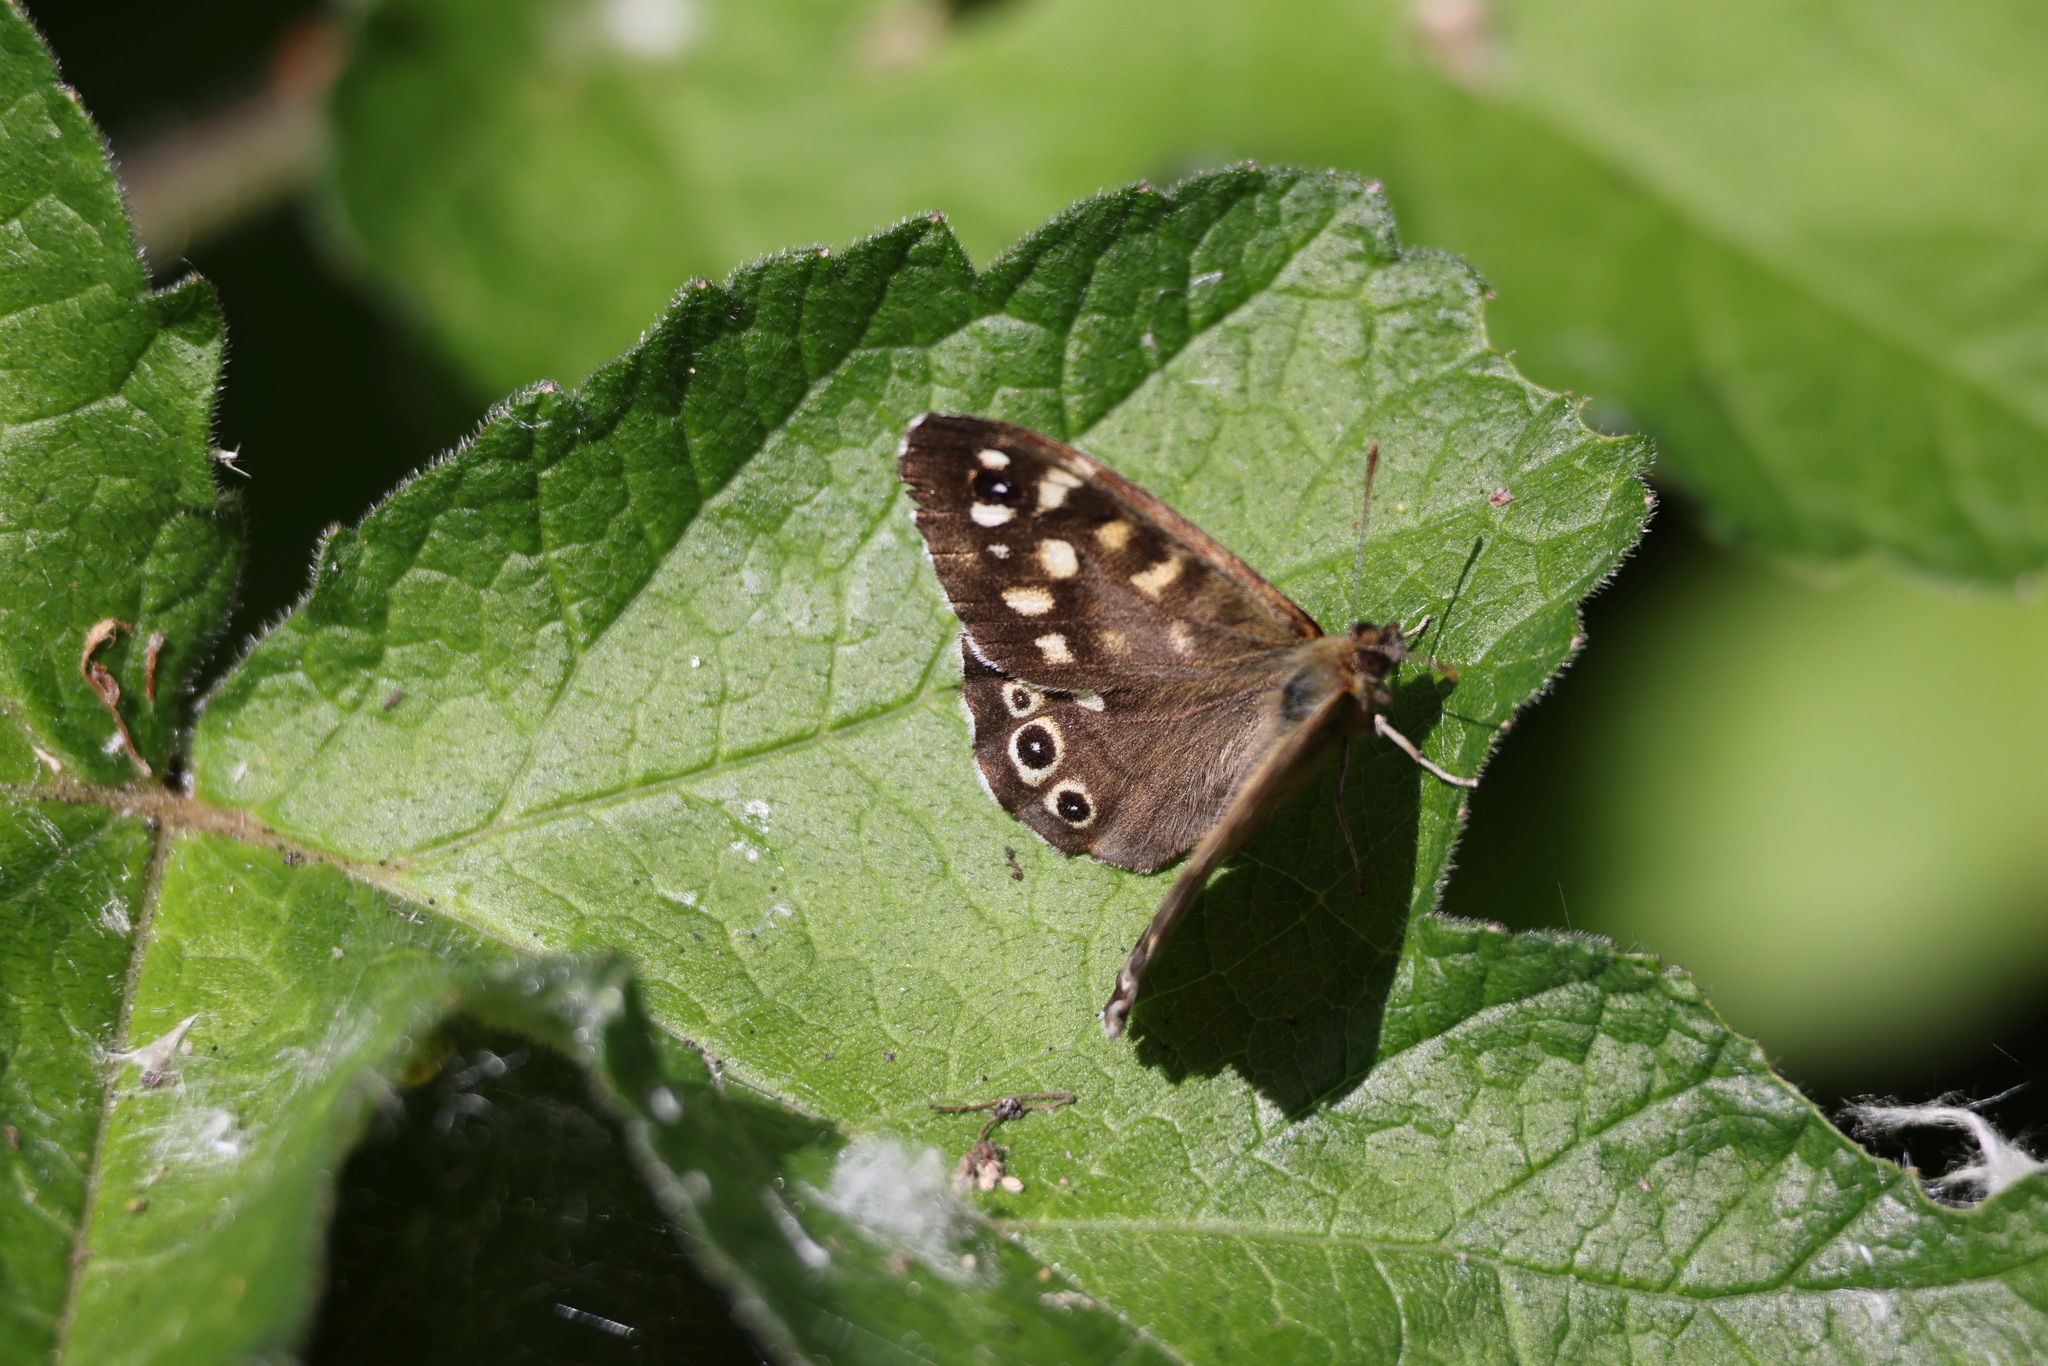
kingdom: Animalia
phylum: Arthropoda
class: Insecta
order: Lepidoptera
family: Nymphalidae
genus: Pararge
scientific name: Pararge aegeria
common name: Speckled wood
